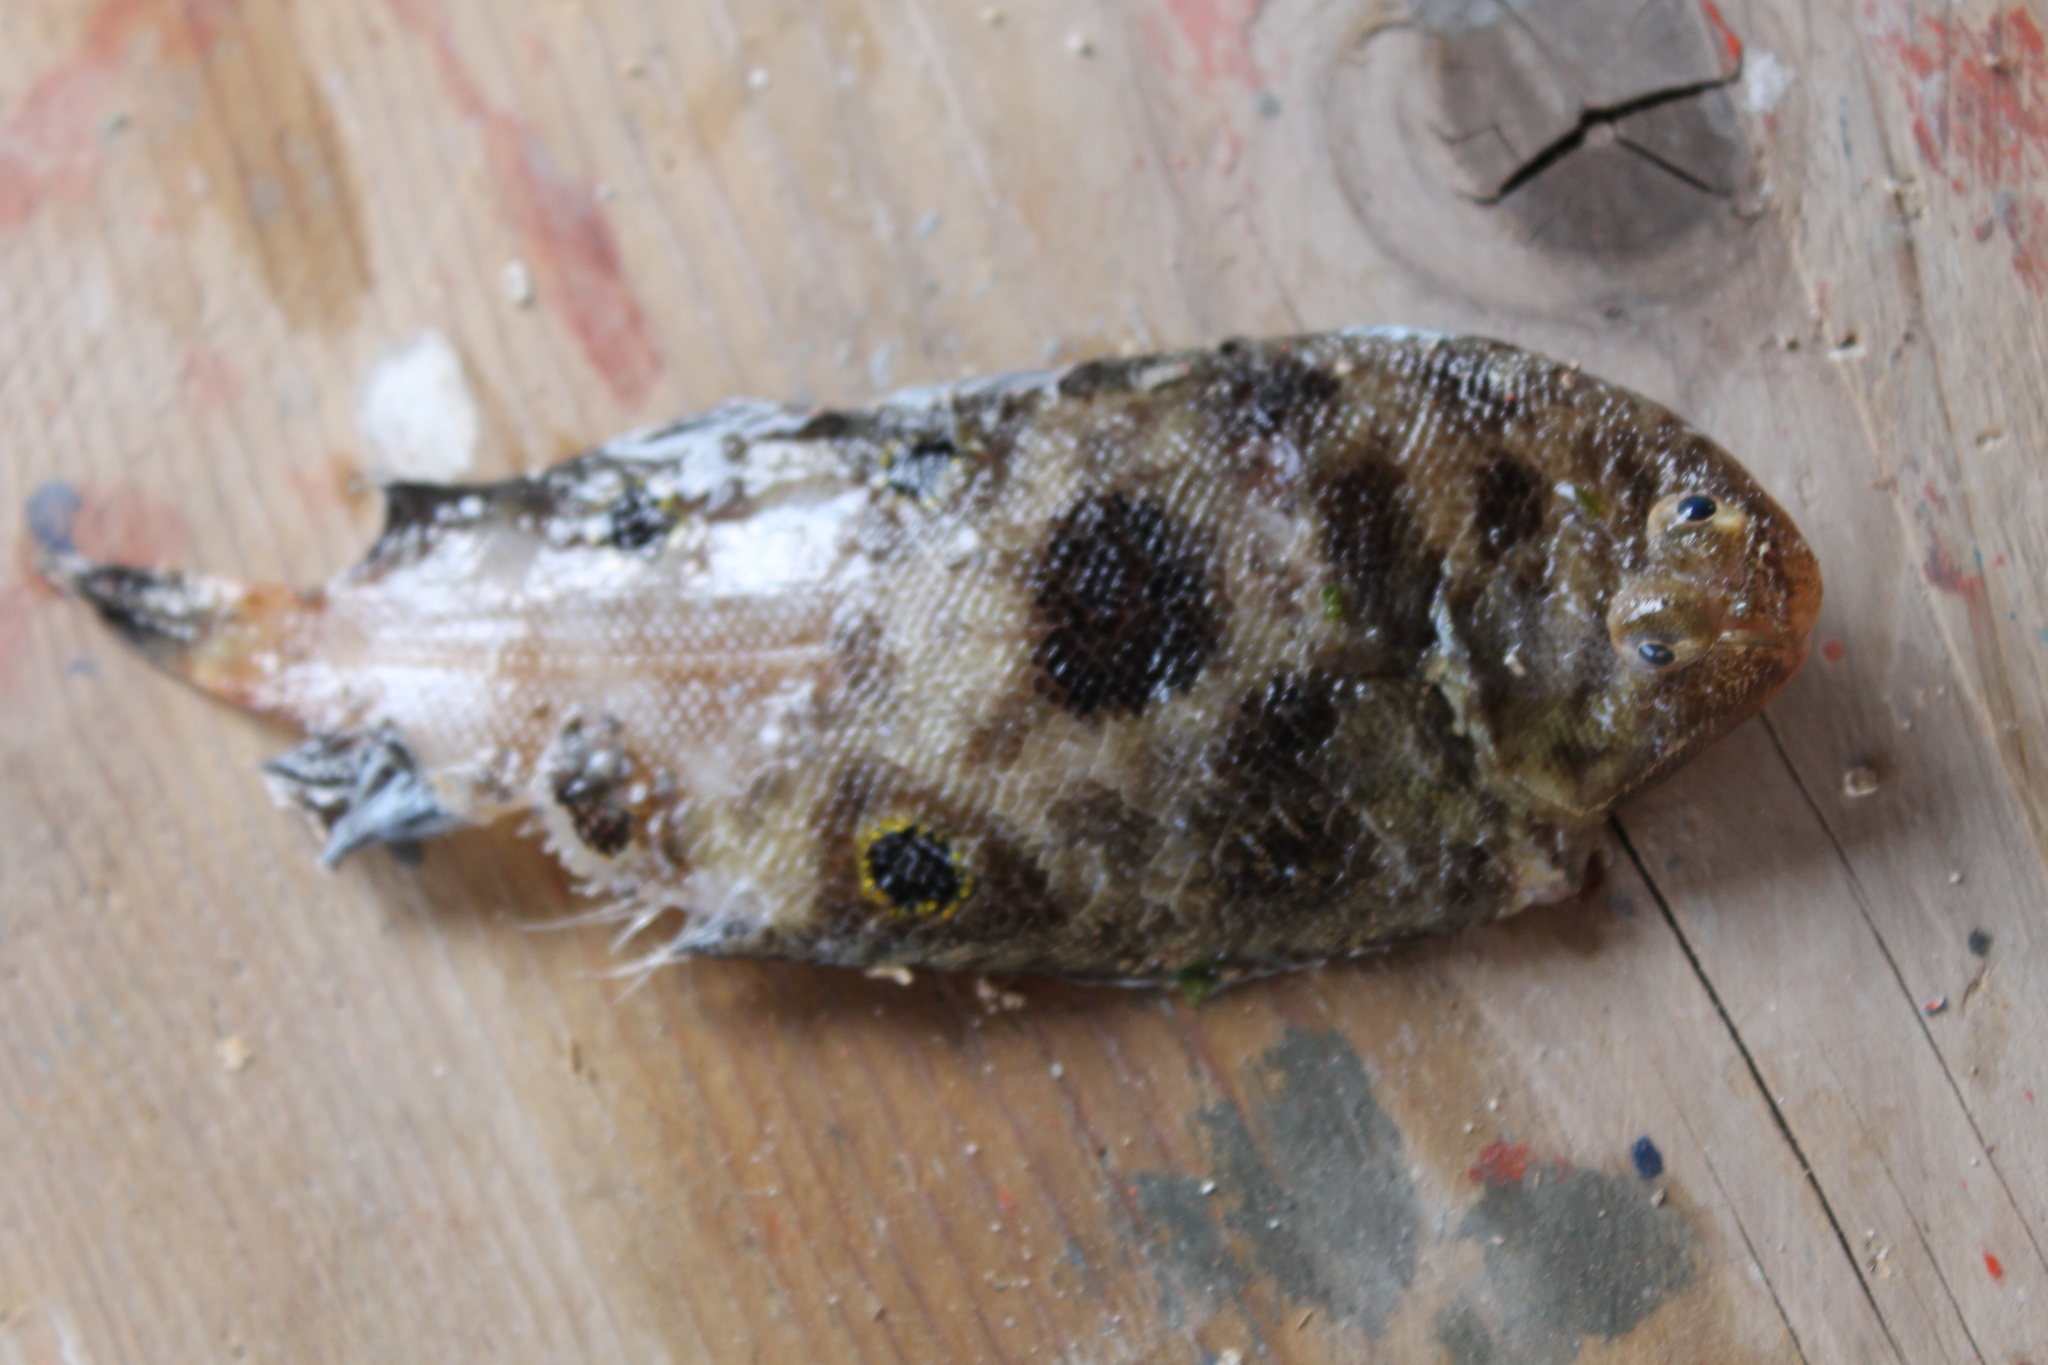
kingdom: Animalia
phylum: Chordata
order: Pleuronectiformes
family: Soleidae
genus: Microchirus
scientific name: Microchirus ocellatus
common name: Eyed sole
